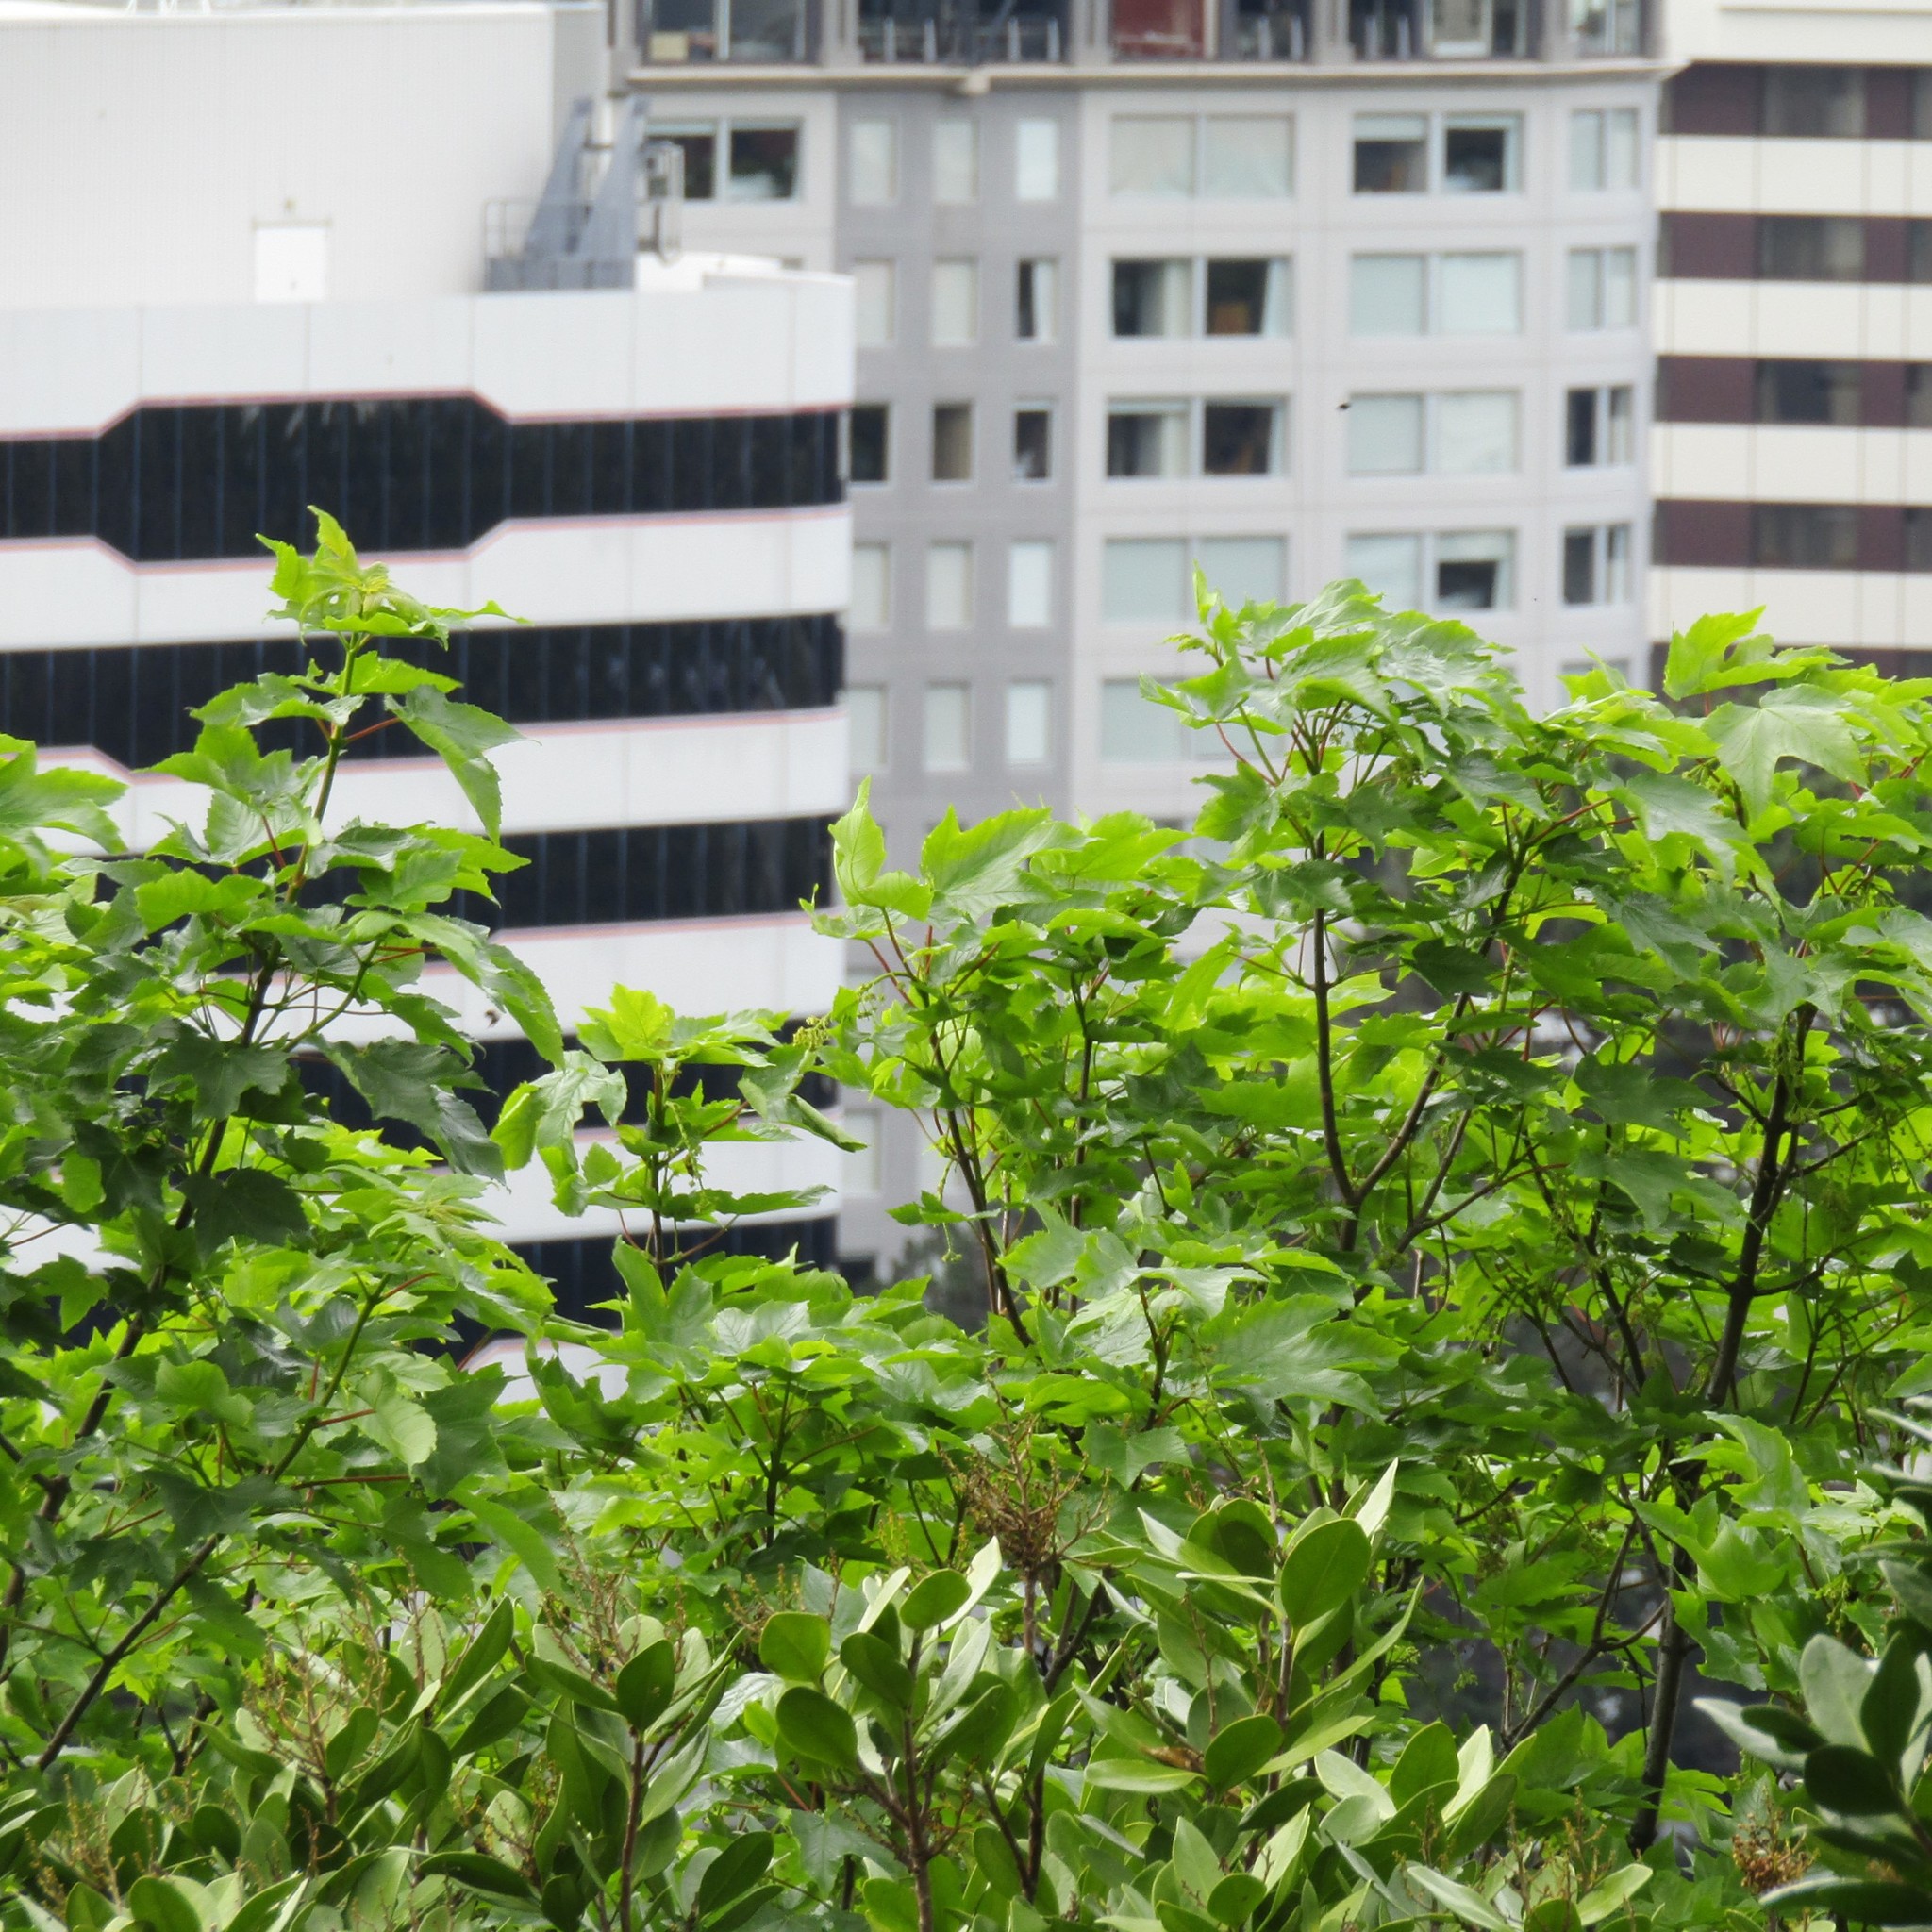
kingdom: Plantae
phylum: Tracheophyta
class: Magnoliopsida
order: Sapindales
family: Sapindaceae
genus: Acer
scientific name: Acer pseudoplatanus
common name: Sycamore
